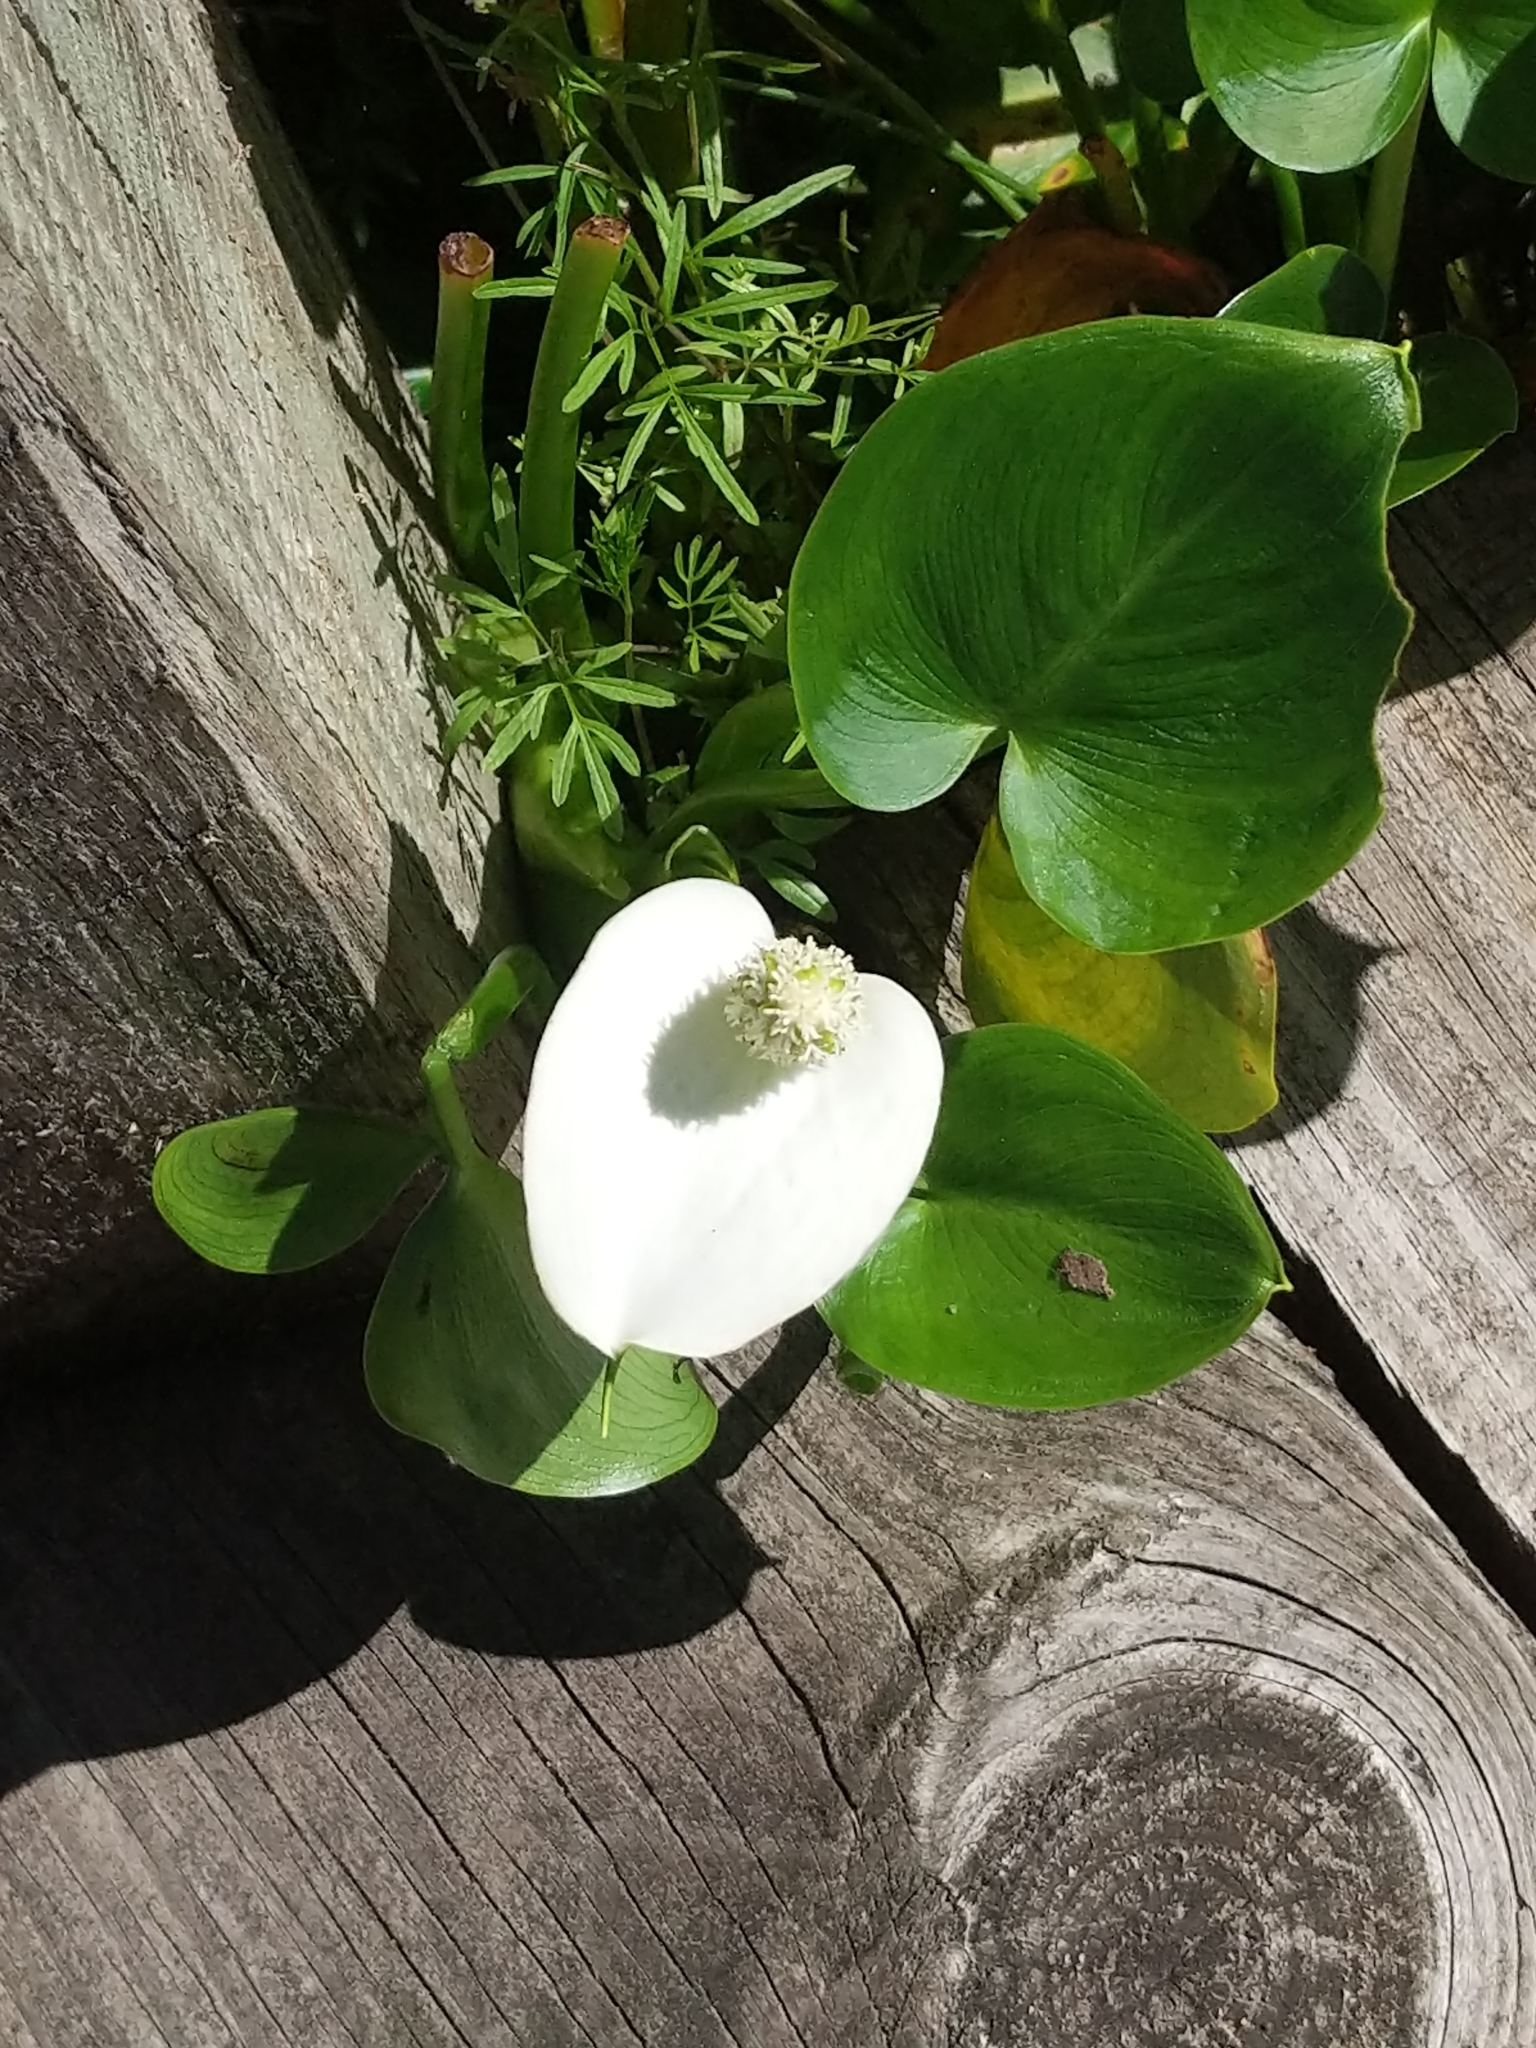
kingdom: Plantae
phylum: Tracheophyta
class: Liliopsida
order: Alismatales
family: Araceae
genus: Calla
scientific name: Calla palustris
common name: Bog arum
